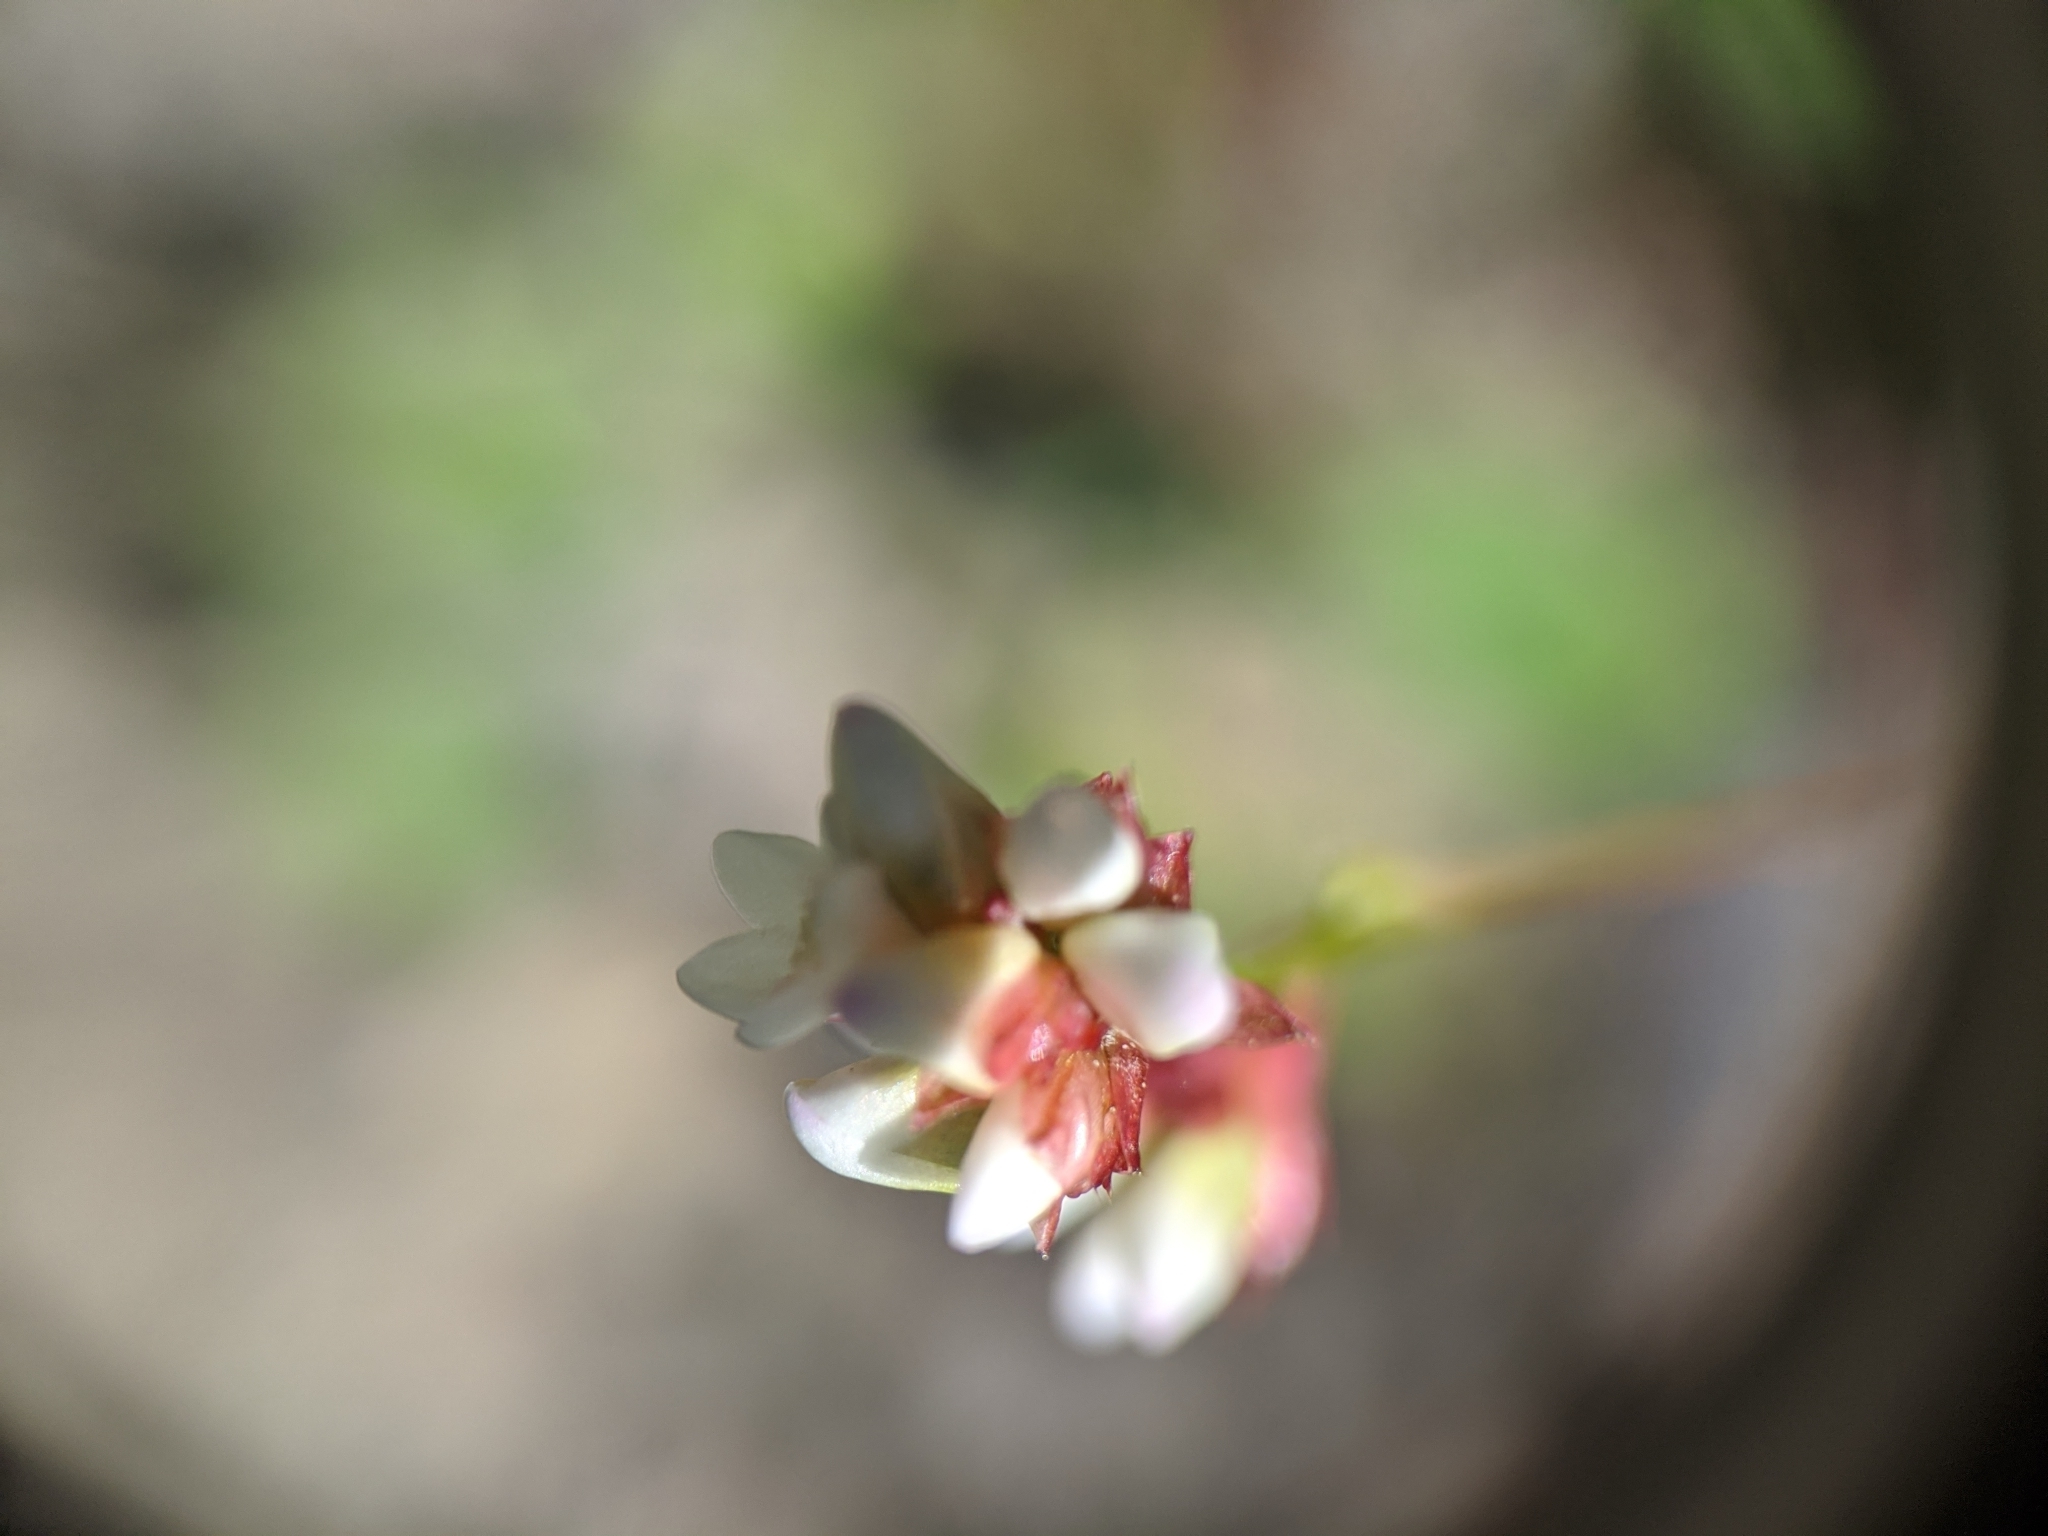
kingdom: Plantae
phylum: Tracheophyta
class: Magnoliopsida
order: Caryophyllales
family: Polygonaceae
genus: Persicaria
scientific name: Persicaria sagittata
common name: American tearthumb
